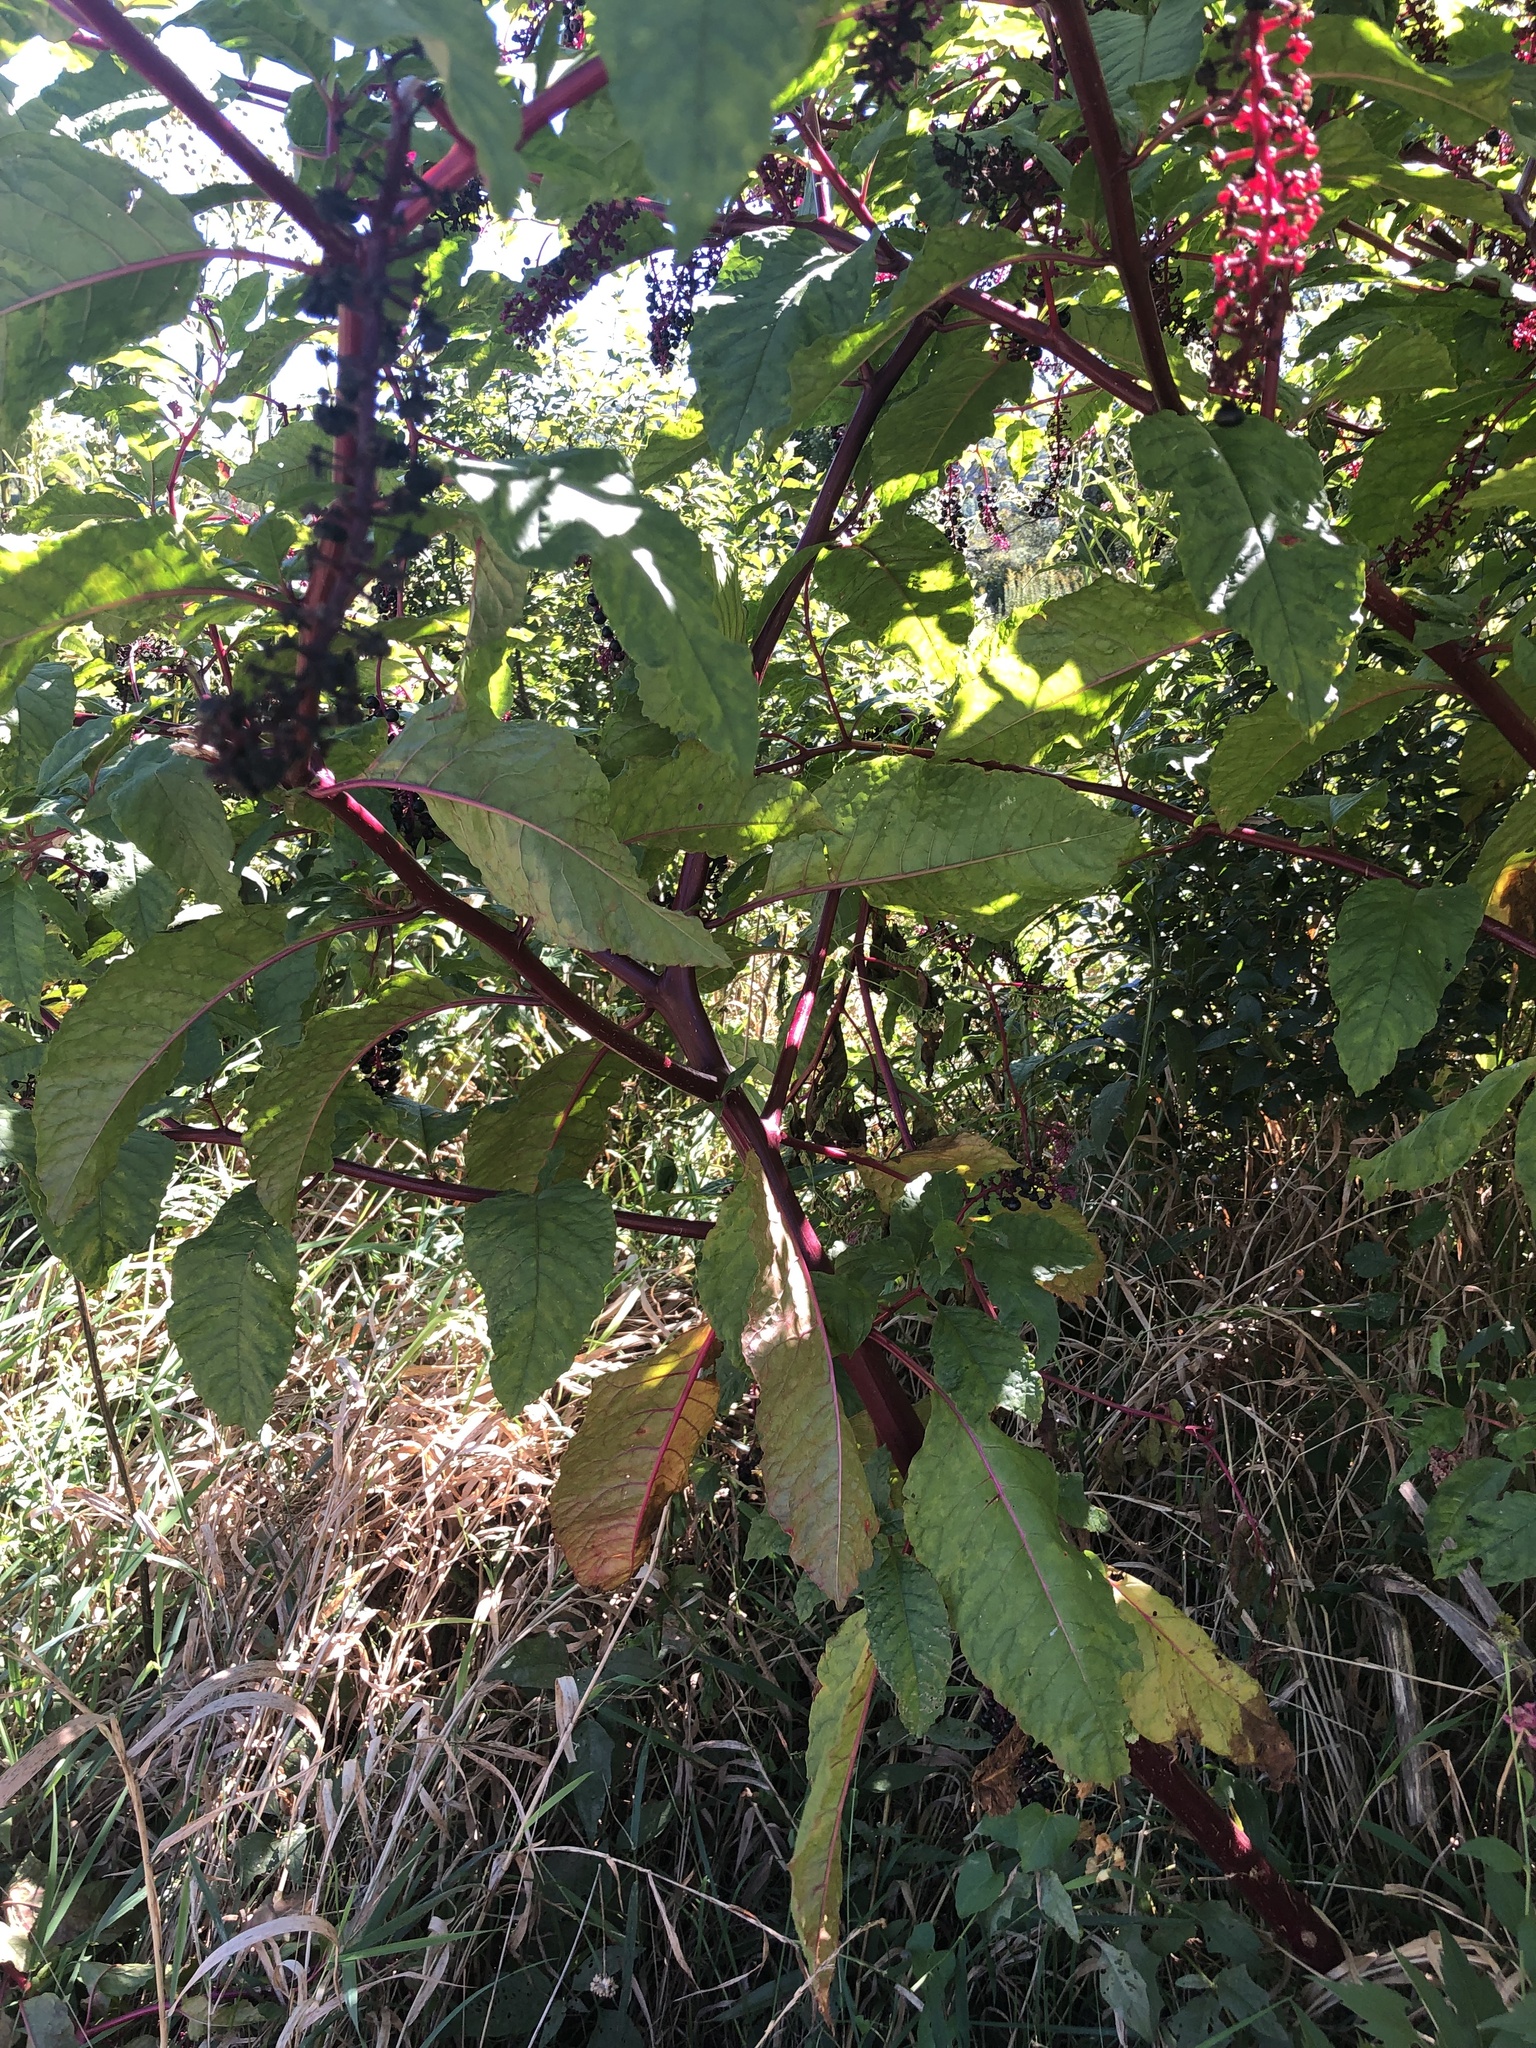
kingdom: Plantae
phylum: Tracheophyta
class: Magnoliopsida
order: Caryophyllales
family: Phytolaccaceae
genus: Phytolacca
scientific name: Phytolacca americana
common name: American pokeweed
